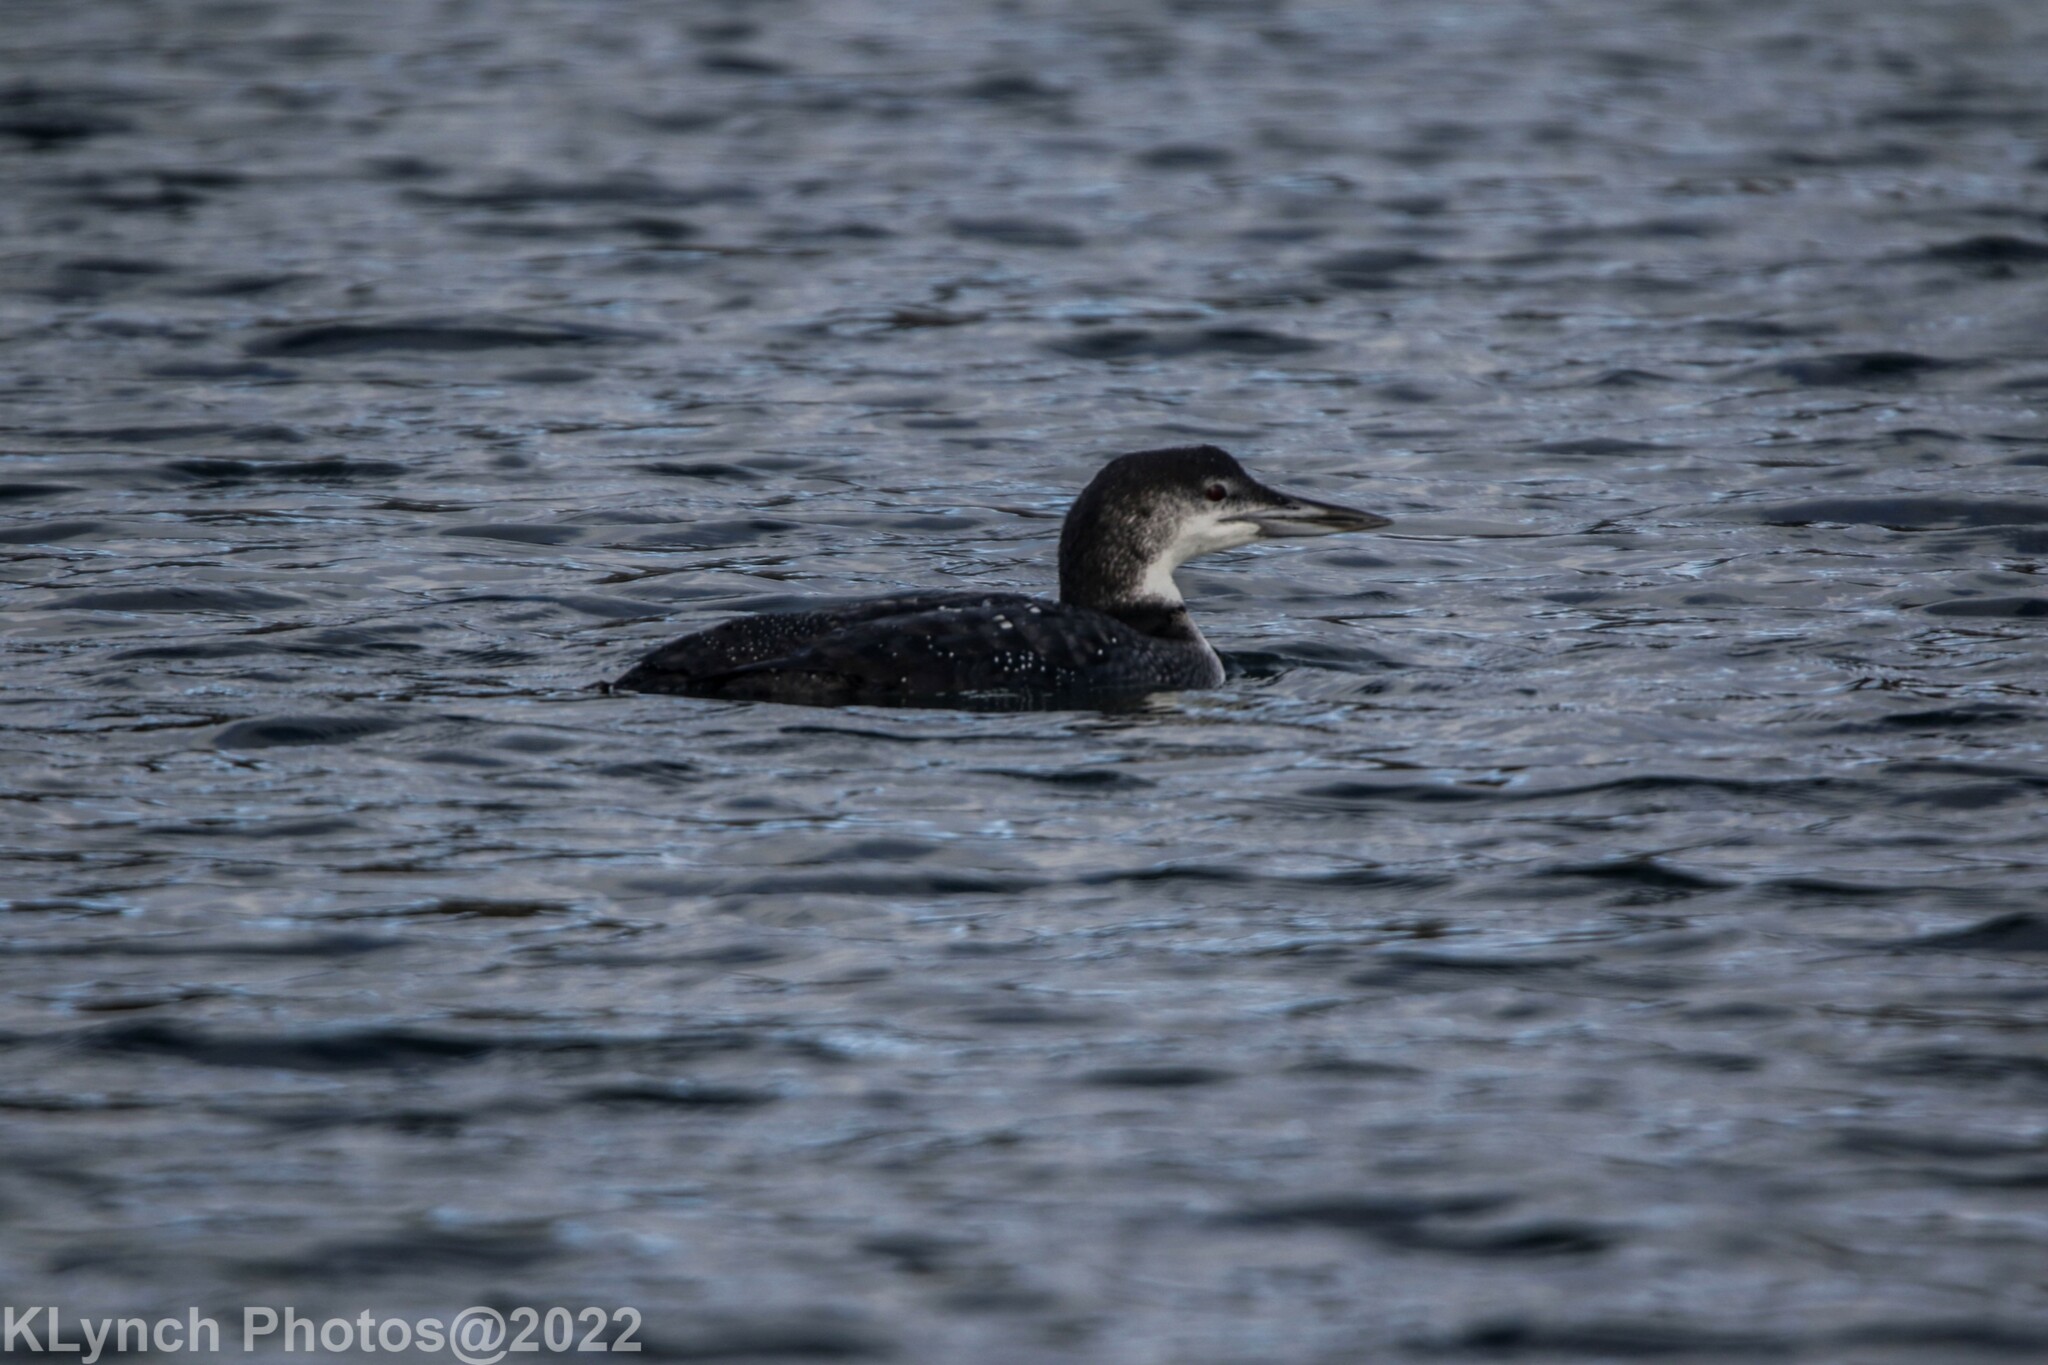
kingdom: Animalia
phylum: Chordata
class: Aves
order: Gaviiformes
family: Gaviidae
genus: Gavia
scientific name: Gavia immer
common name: Common loon
